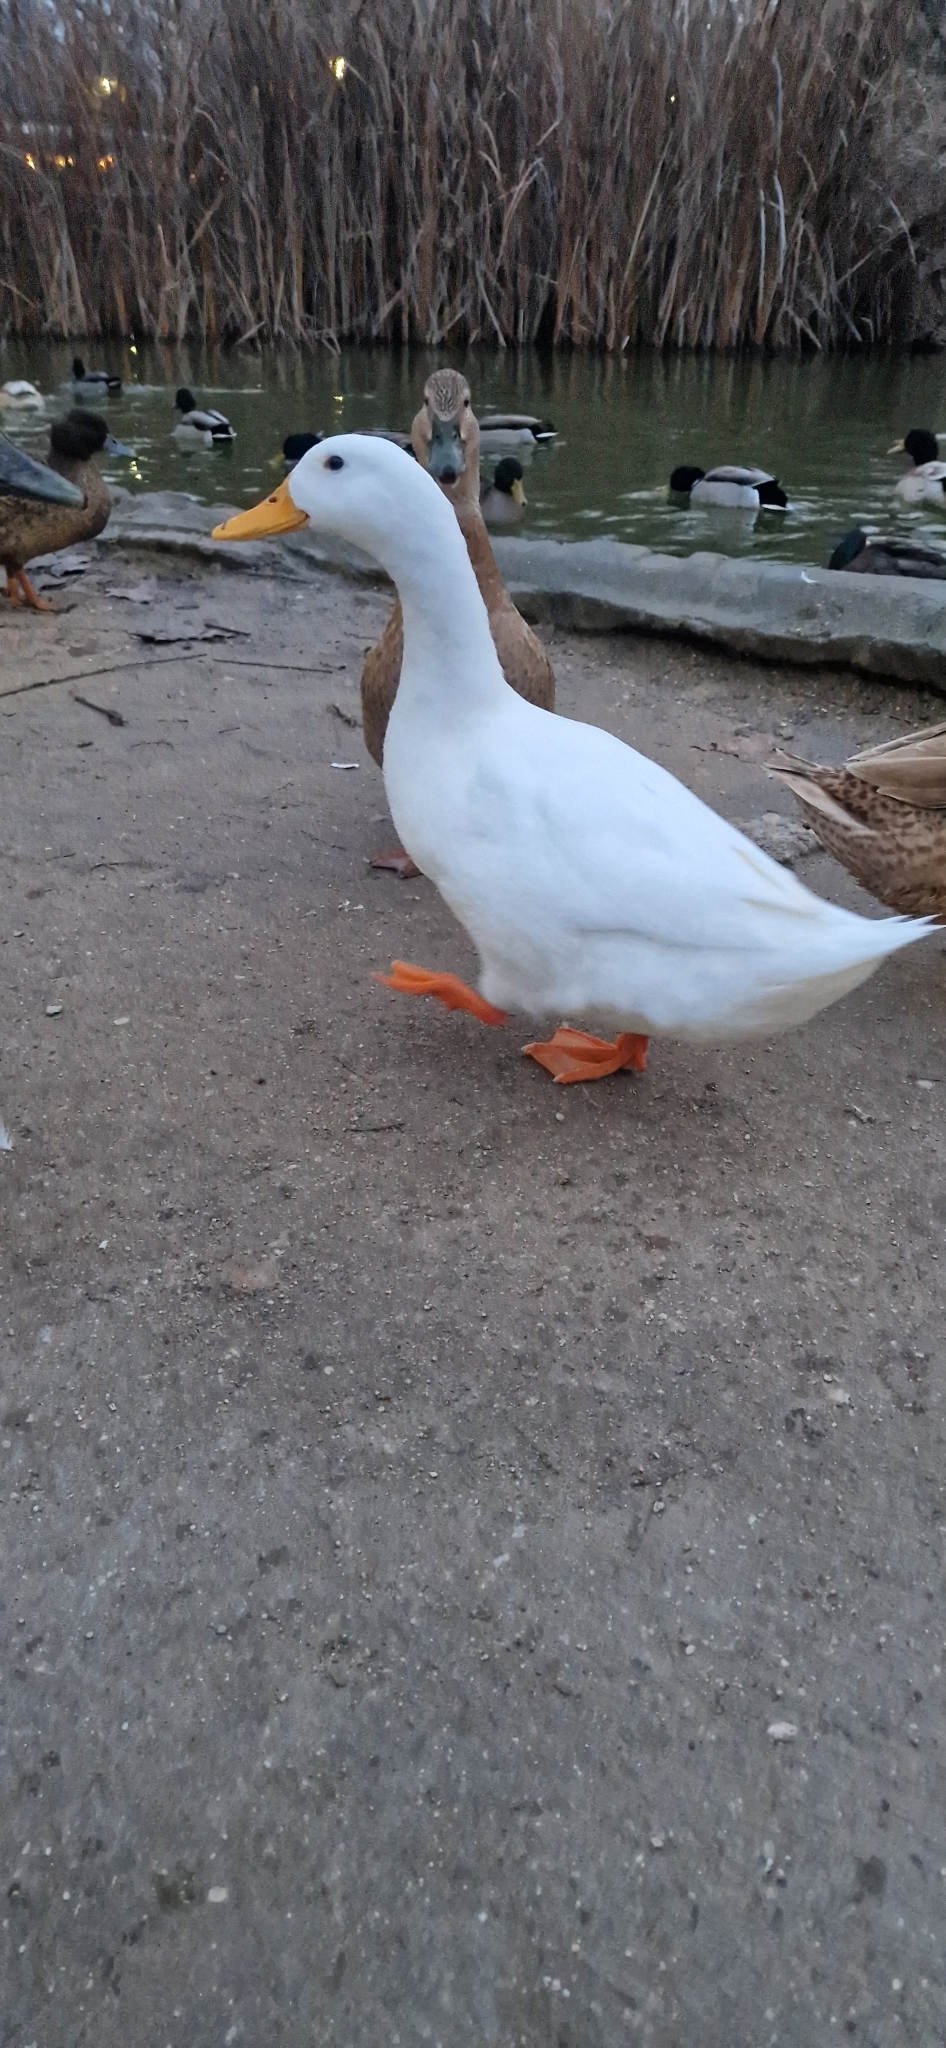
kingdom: Animalia
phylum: Chordata
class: Aves
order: Anseriformes
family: Anatidae
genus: Anas
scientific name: Anas platyrhynchos
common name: Mallard
